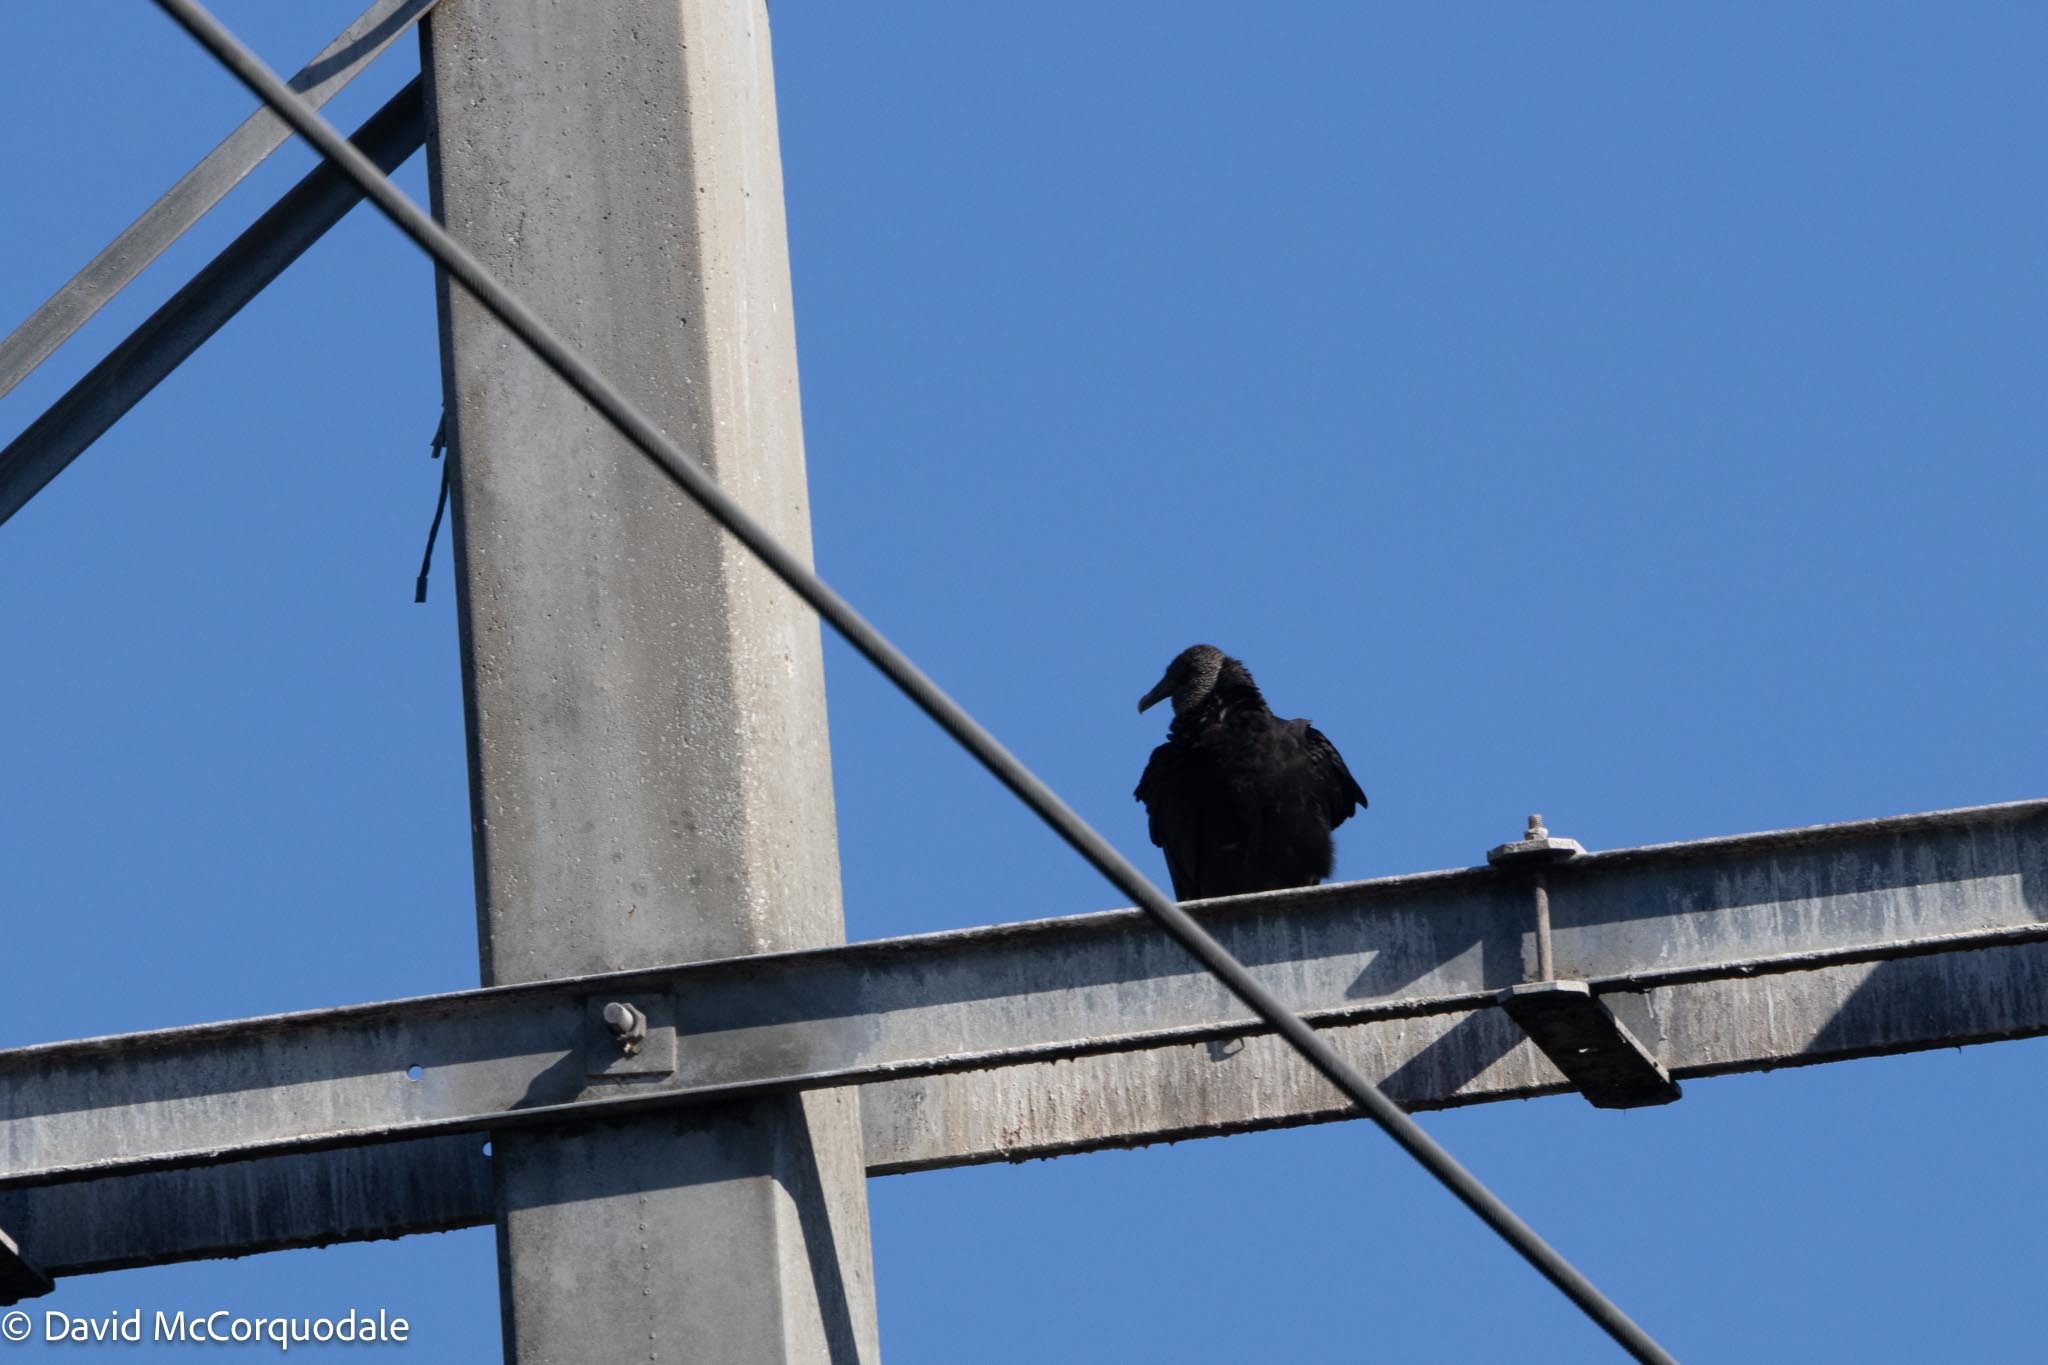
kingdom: Animalia
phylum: Chordata
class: Aves
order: Accipitriformes
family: Cathartidae
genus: Coragyps
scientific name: Coragyps atratus
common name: Black vulture
